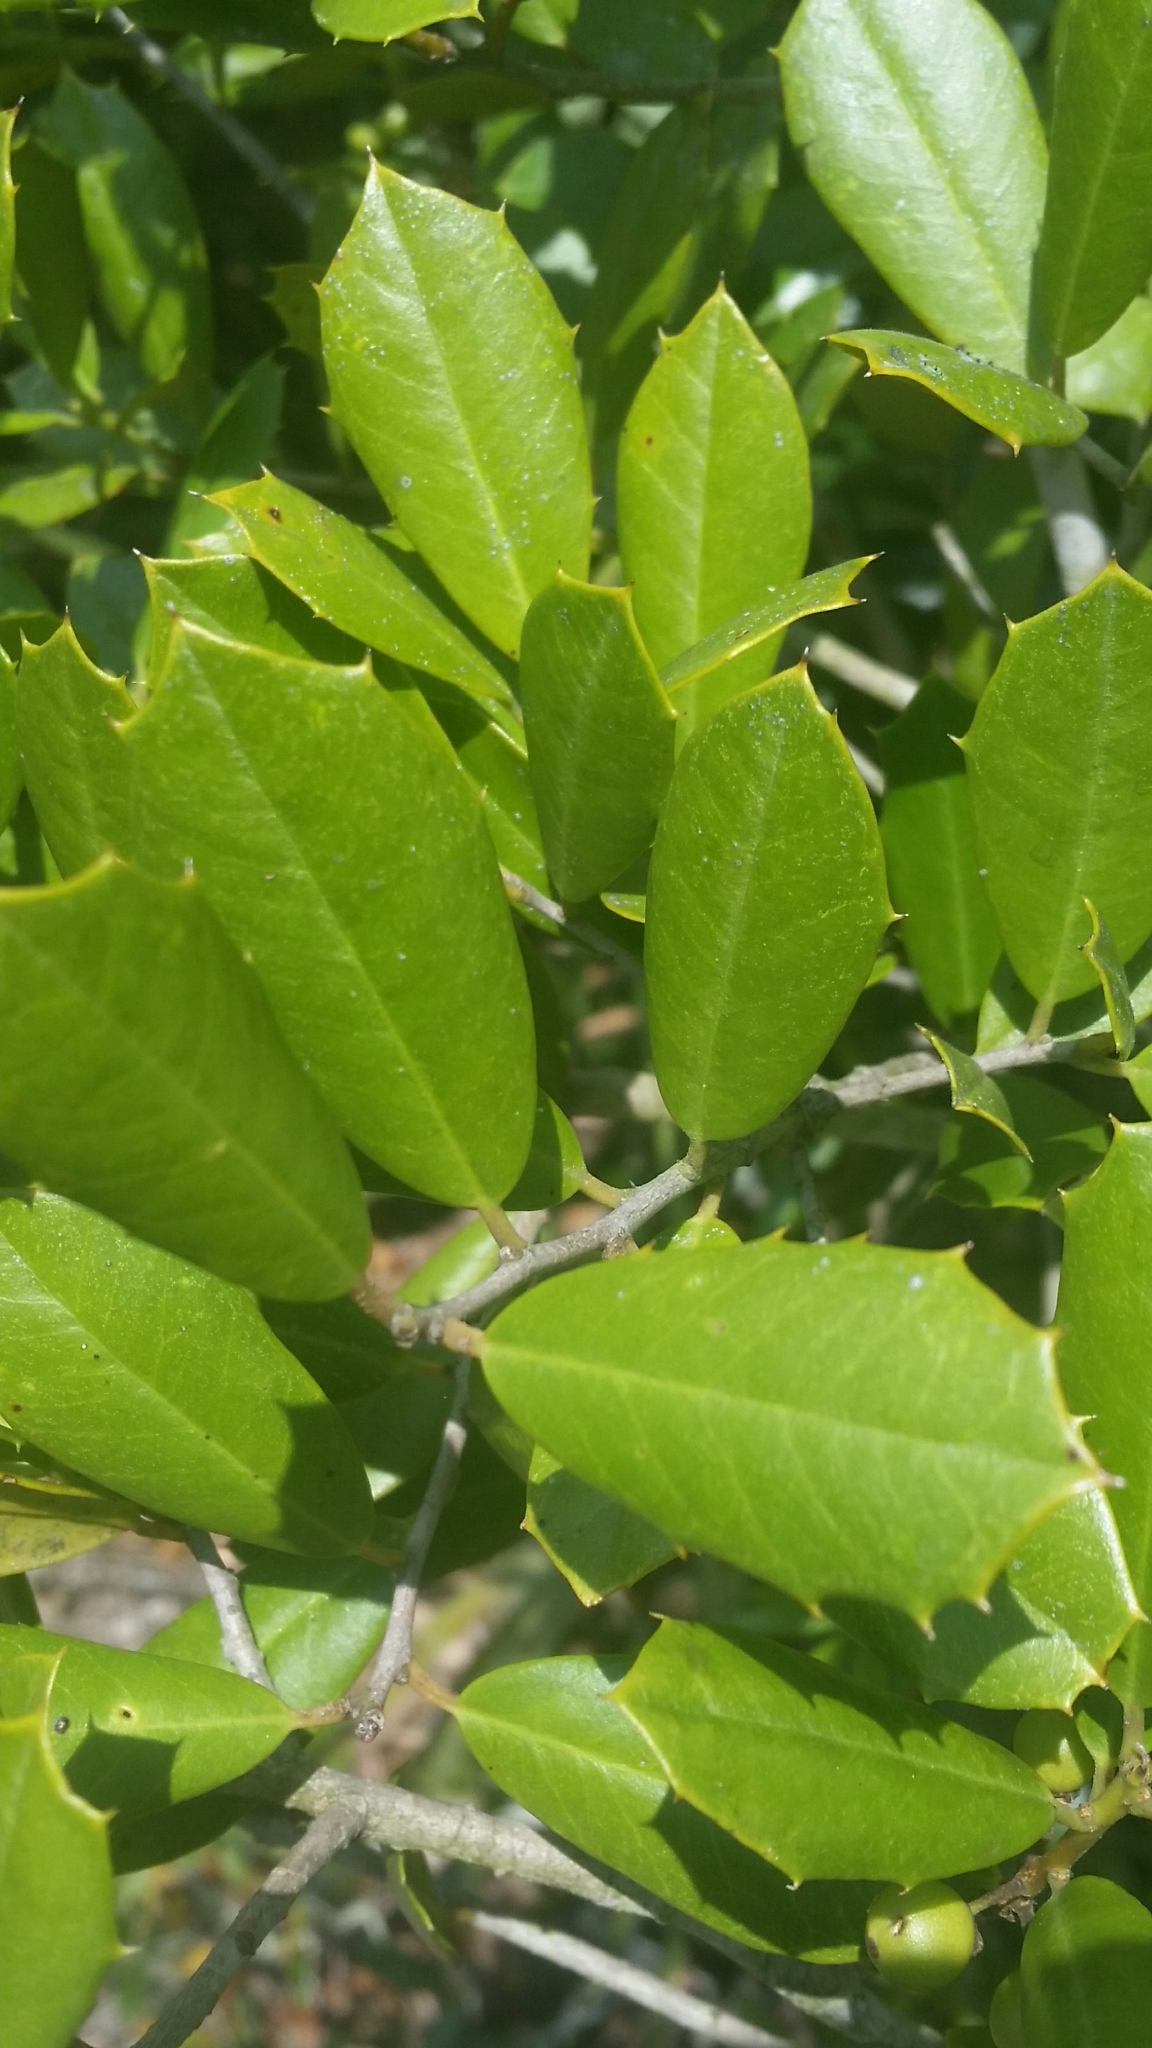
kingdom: Plantae
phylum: Tracheophyta
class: Magnoliopsida
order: Aquifoliales
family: Aquifoliaceae
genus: Ilex
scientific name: Ilex opaca
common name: American holly
